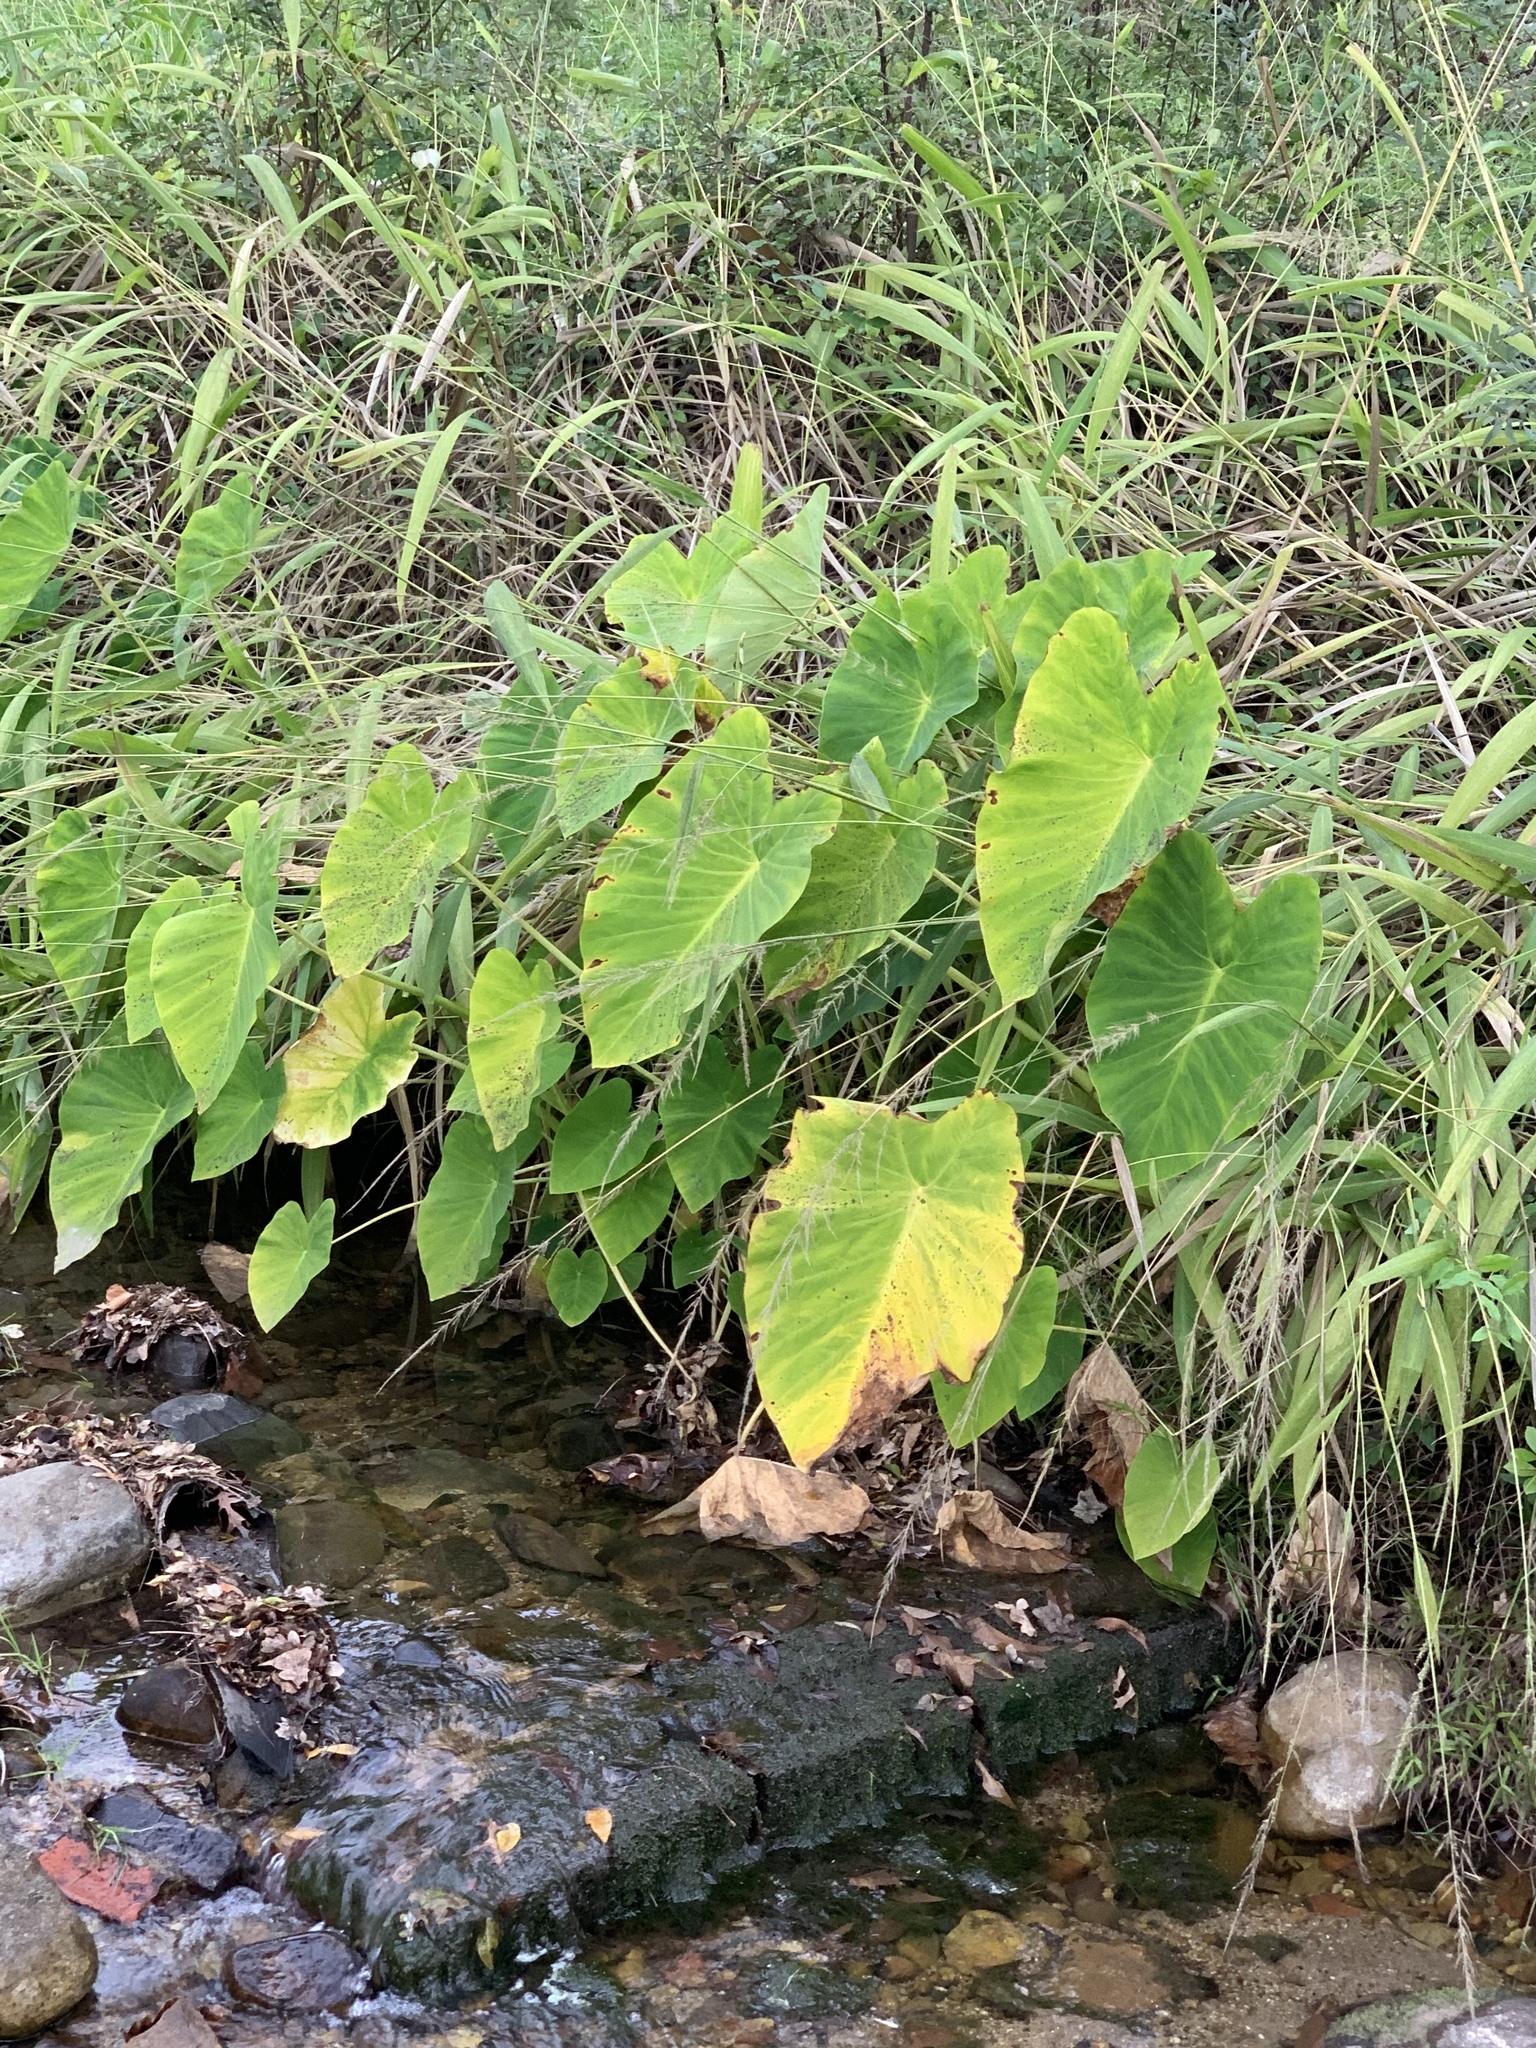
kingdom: Plantae
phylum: Tracheophyta
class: Liliopsida
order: Alismatales
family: Araceae
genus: Colocasia
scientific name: Colocasia esculenta
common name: Taro
